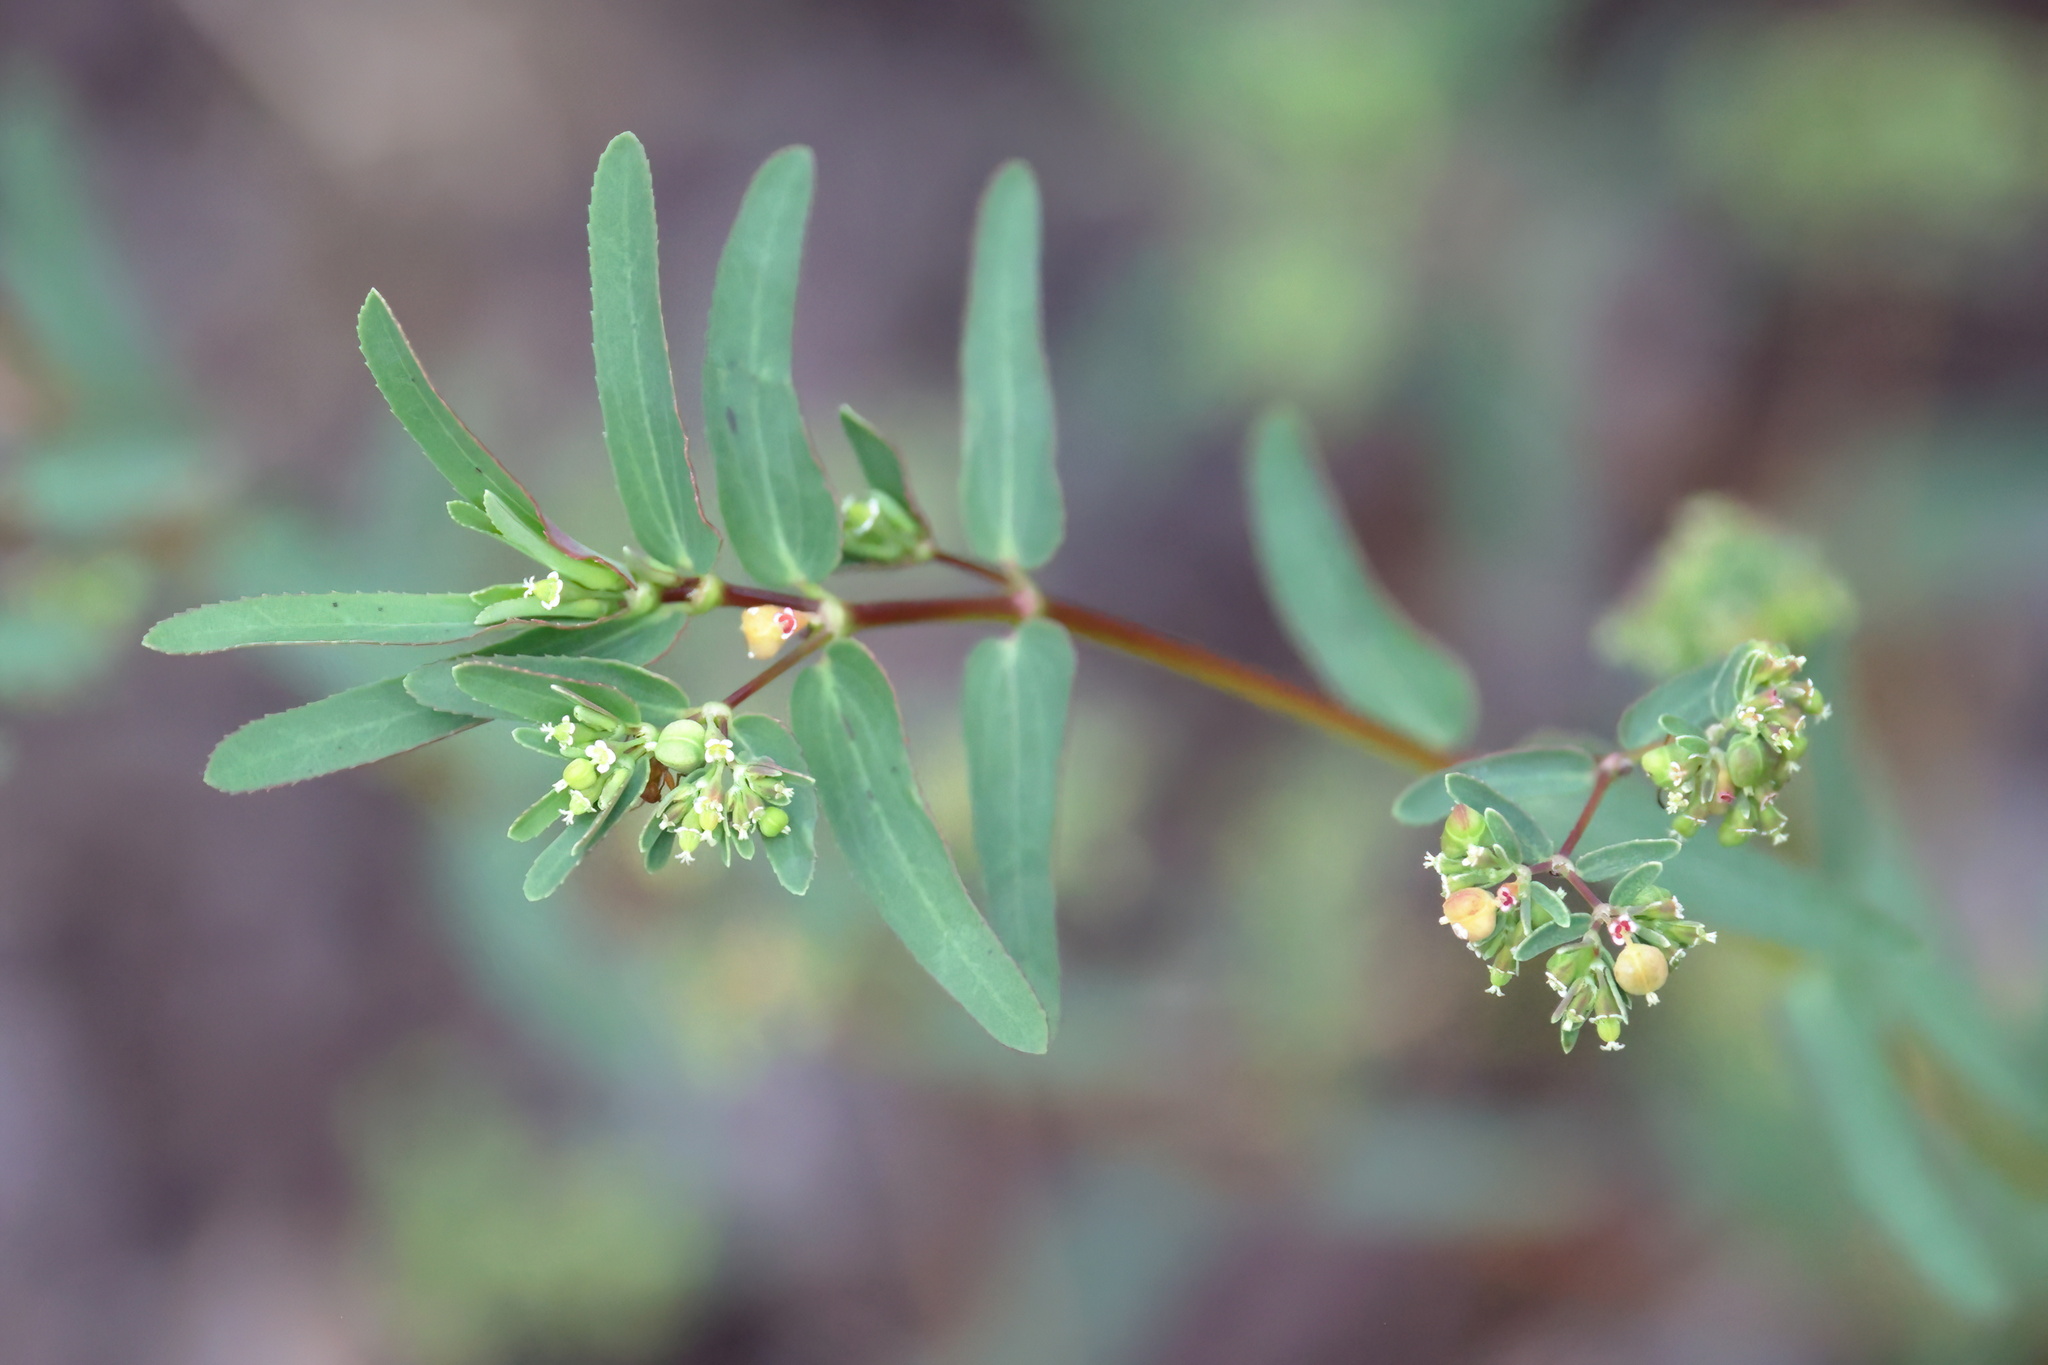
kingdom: Plantae
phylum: Tracheophyta
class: Magnoliopsida
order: Malpighiales
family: Euphorbiaceae
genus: Euphorbia
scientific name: Euphorbia hyssopifolia
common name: Hyssopleaf sandmat
